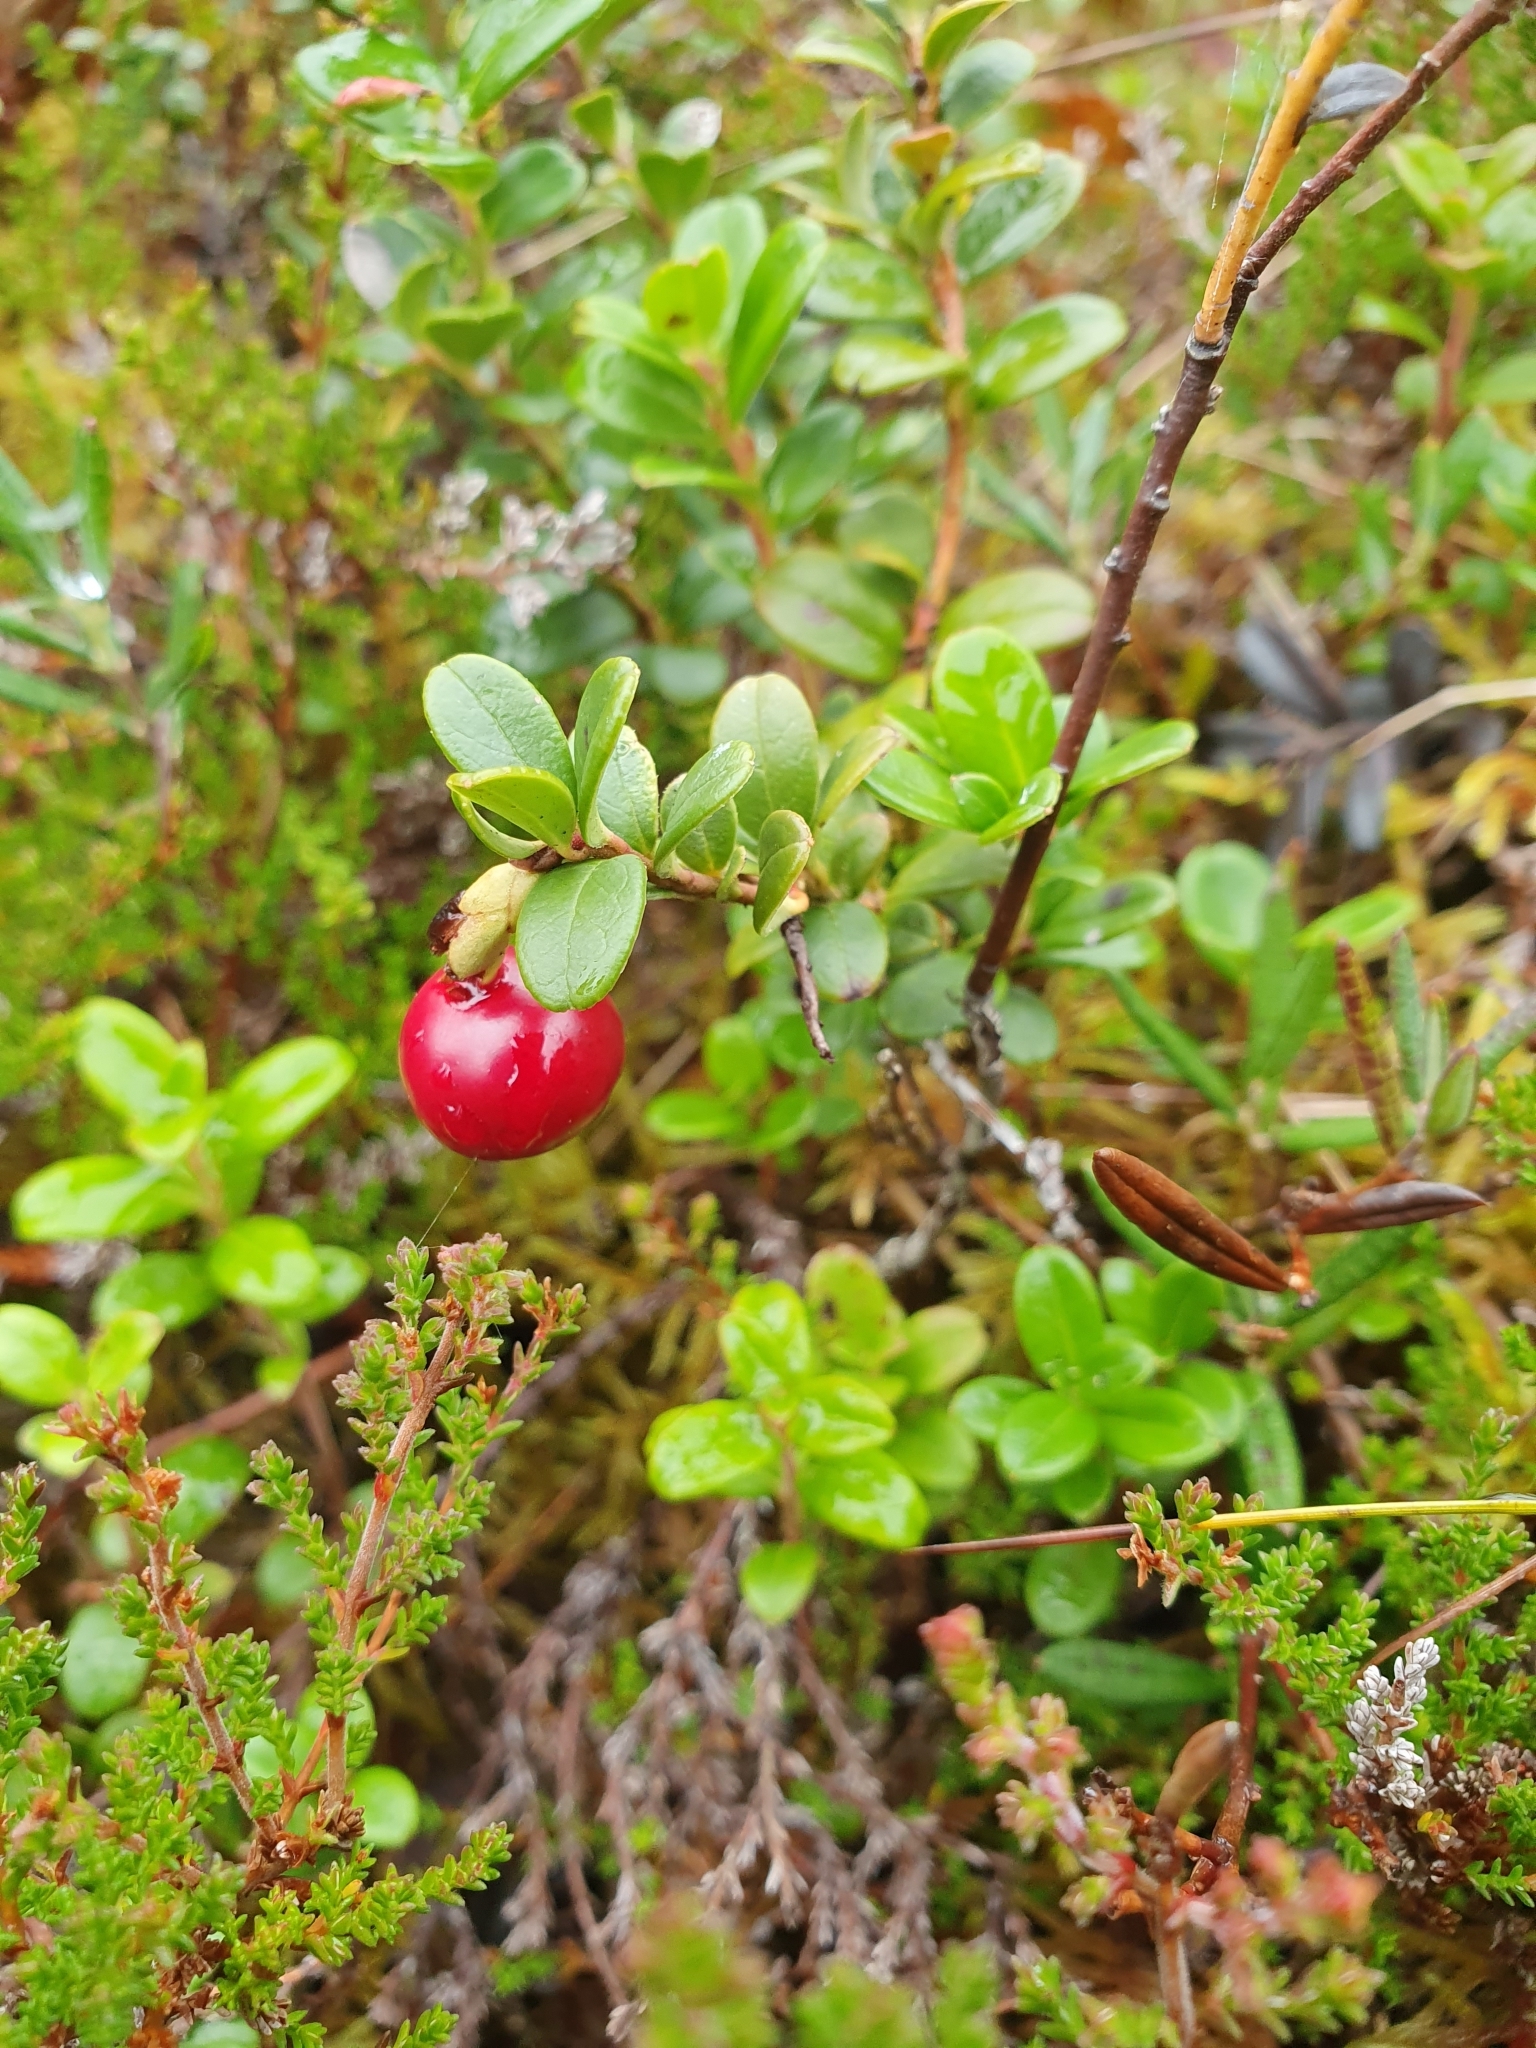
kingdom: Plantae
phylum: Tracheophyta
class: Magnoliopsida
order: Ericales
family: Ericaceae
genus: Vaccinium
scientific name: Vaccinium vitis-idaea
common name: Cowberry
